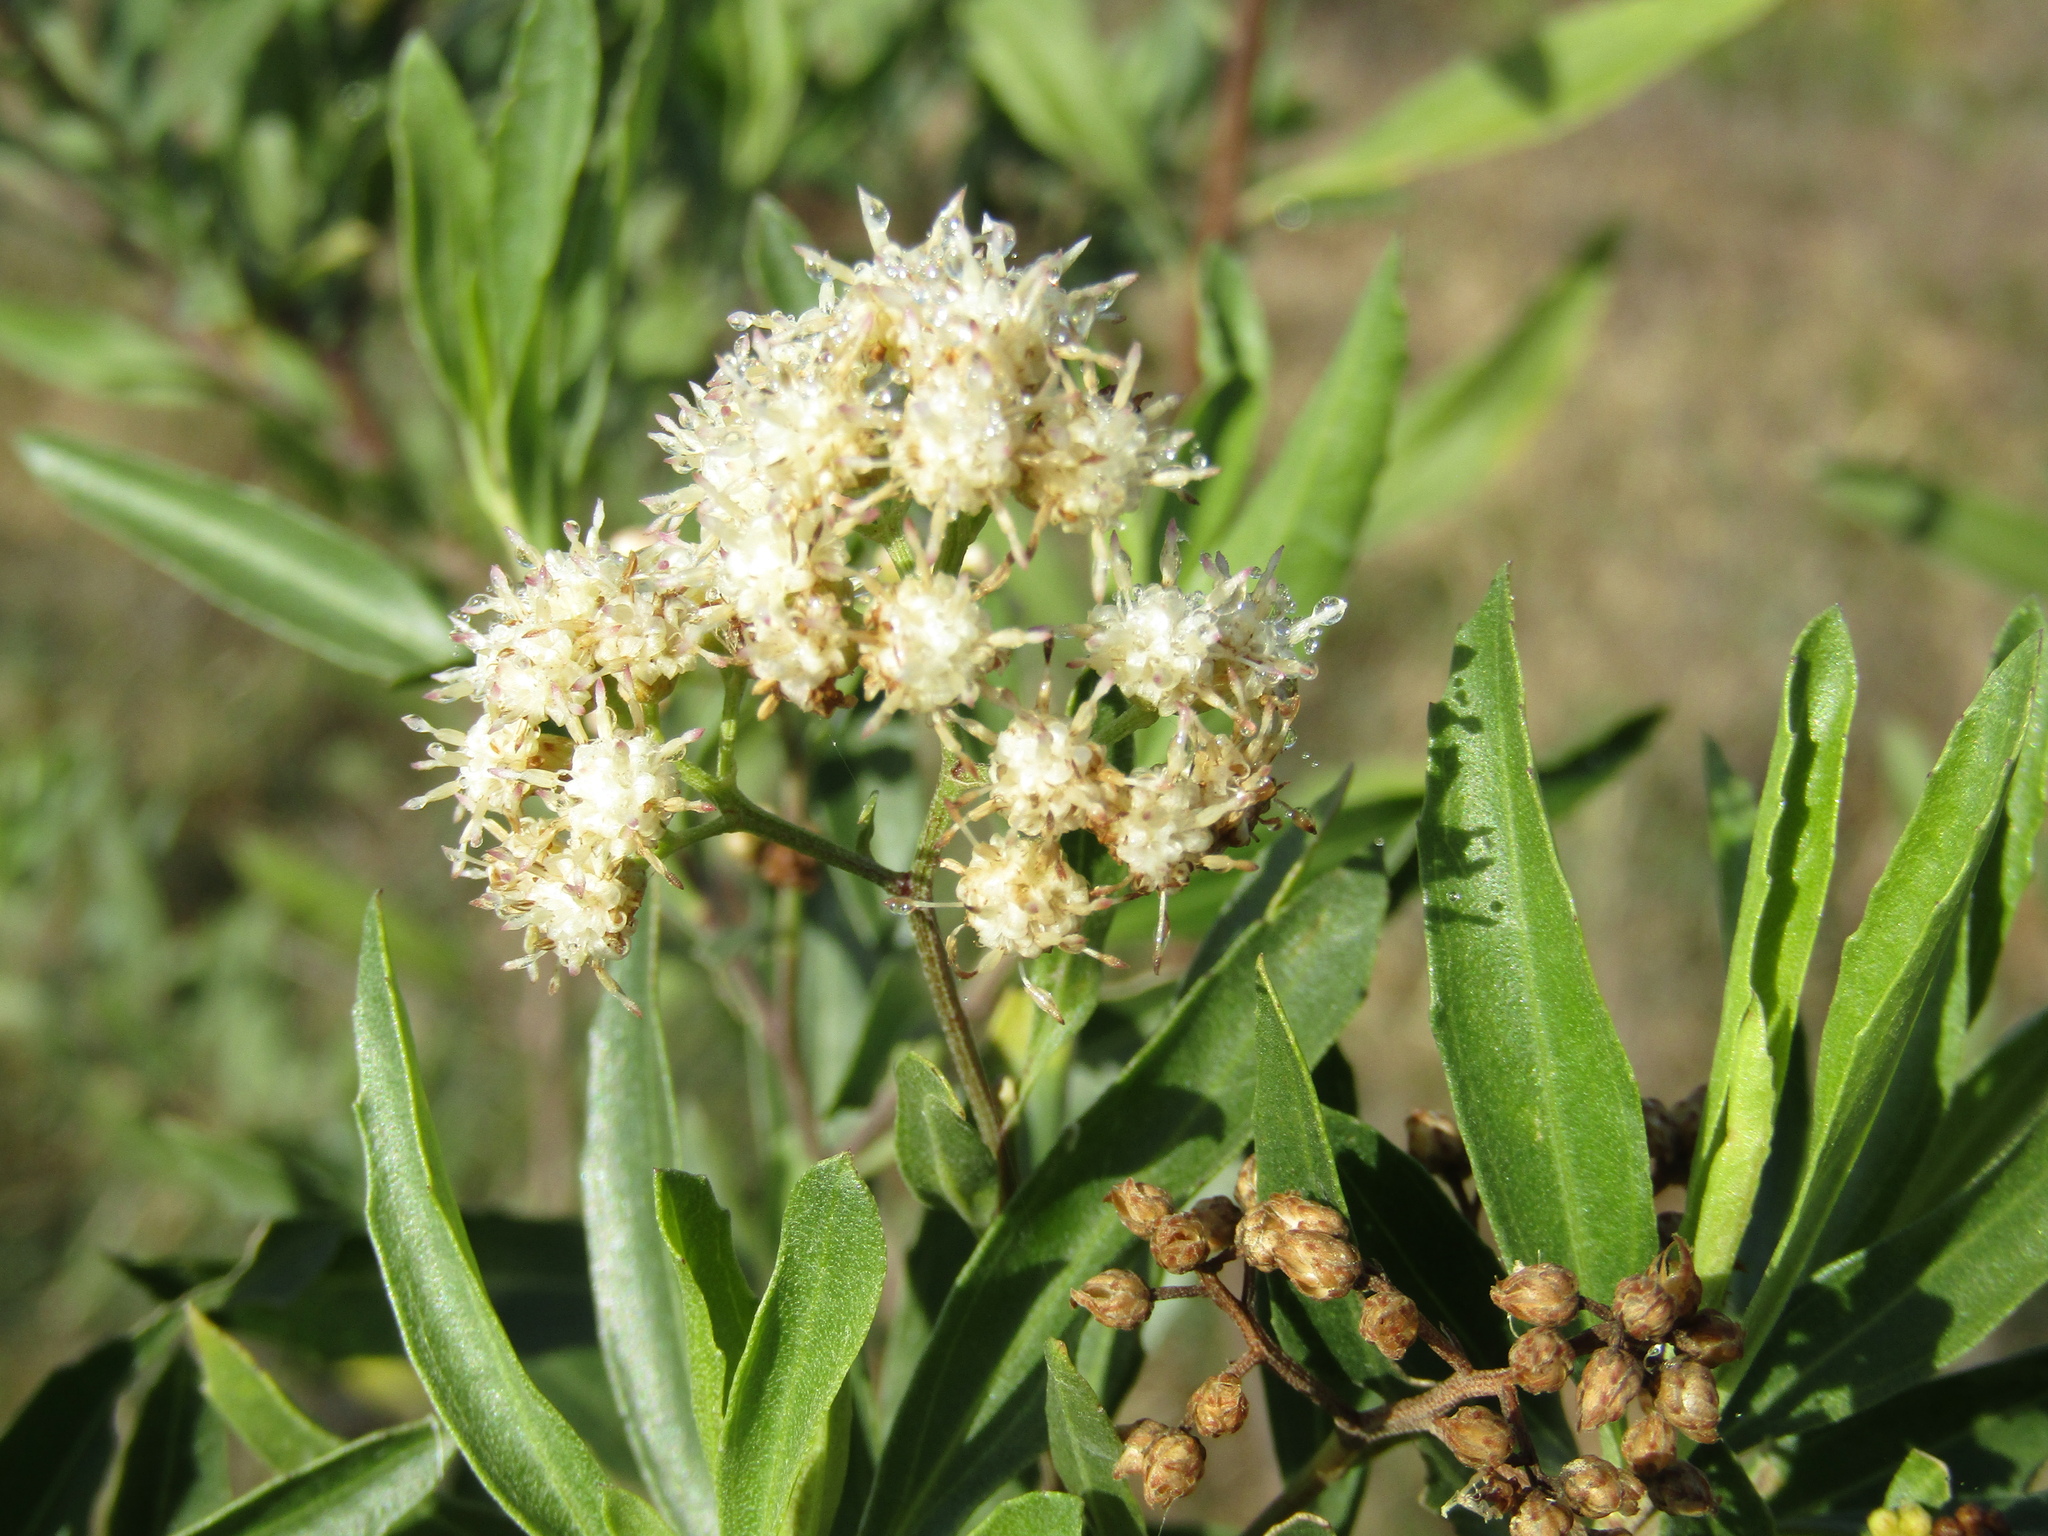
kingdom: Plantae
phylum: Tracheophyta
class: Magnoliopsida
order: Asterales
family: Asteraceae
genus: Baccharis
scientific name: Baccharis salicifolia
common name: Sticky baccharis
